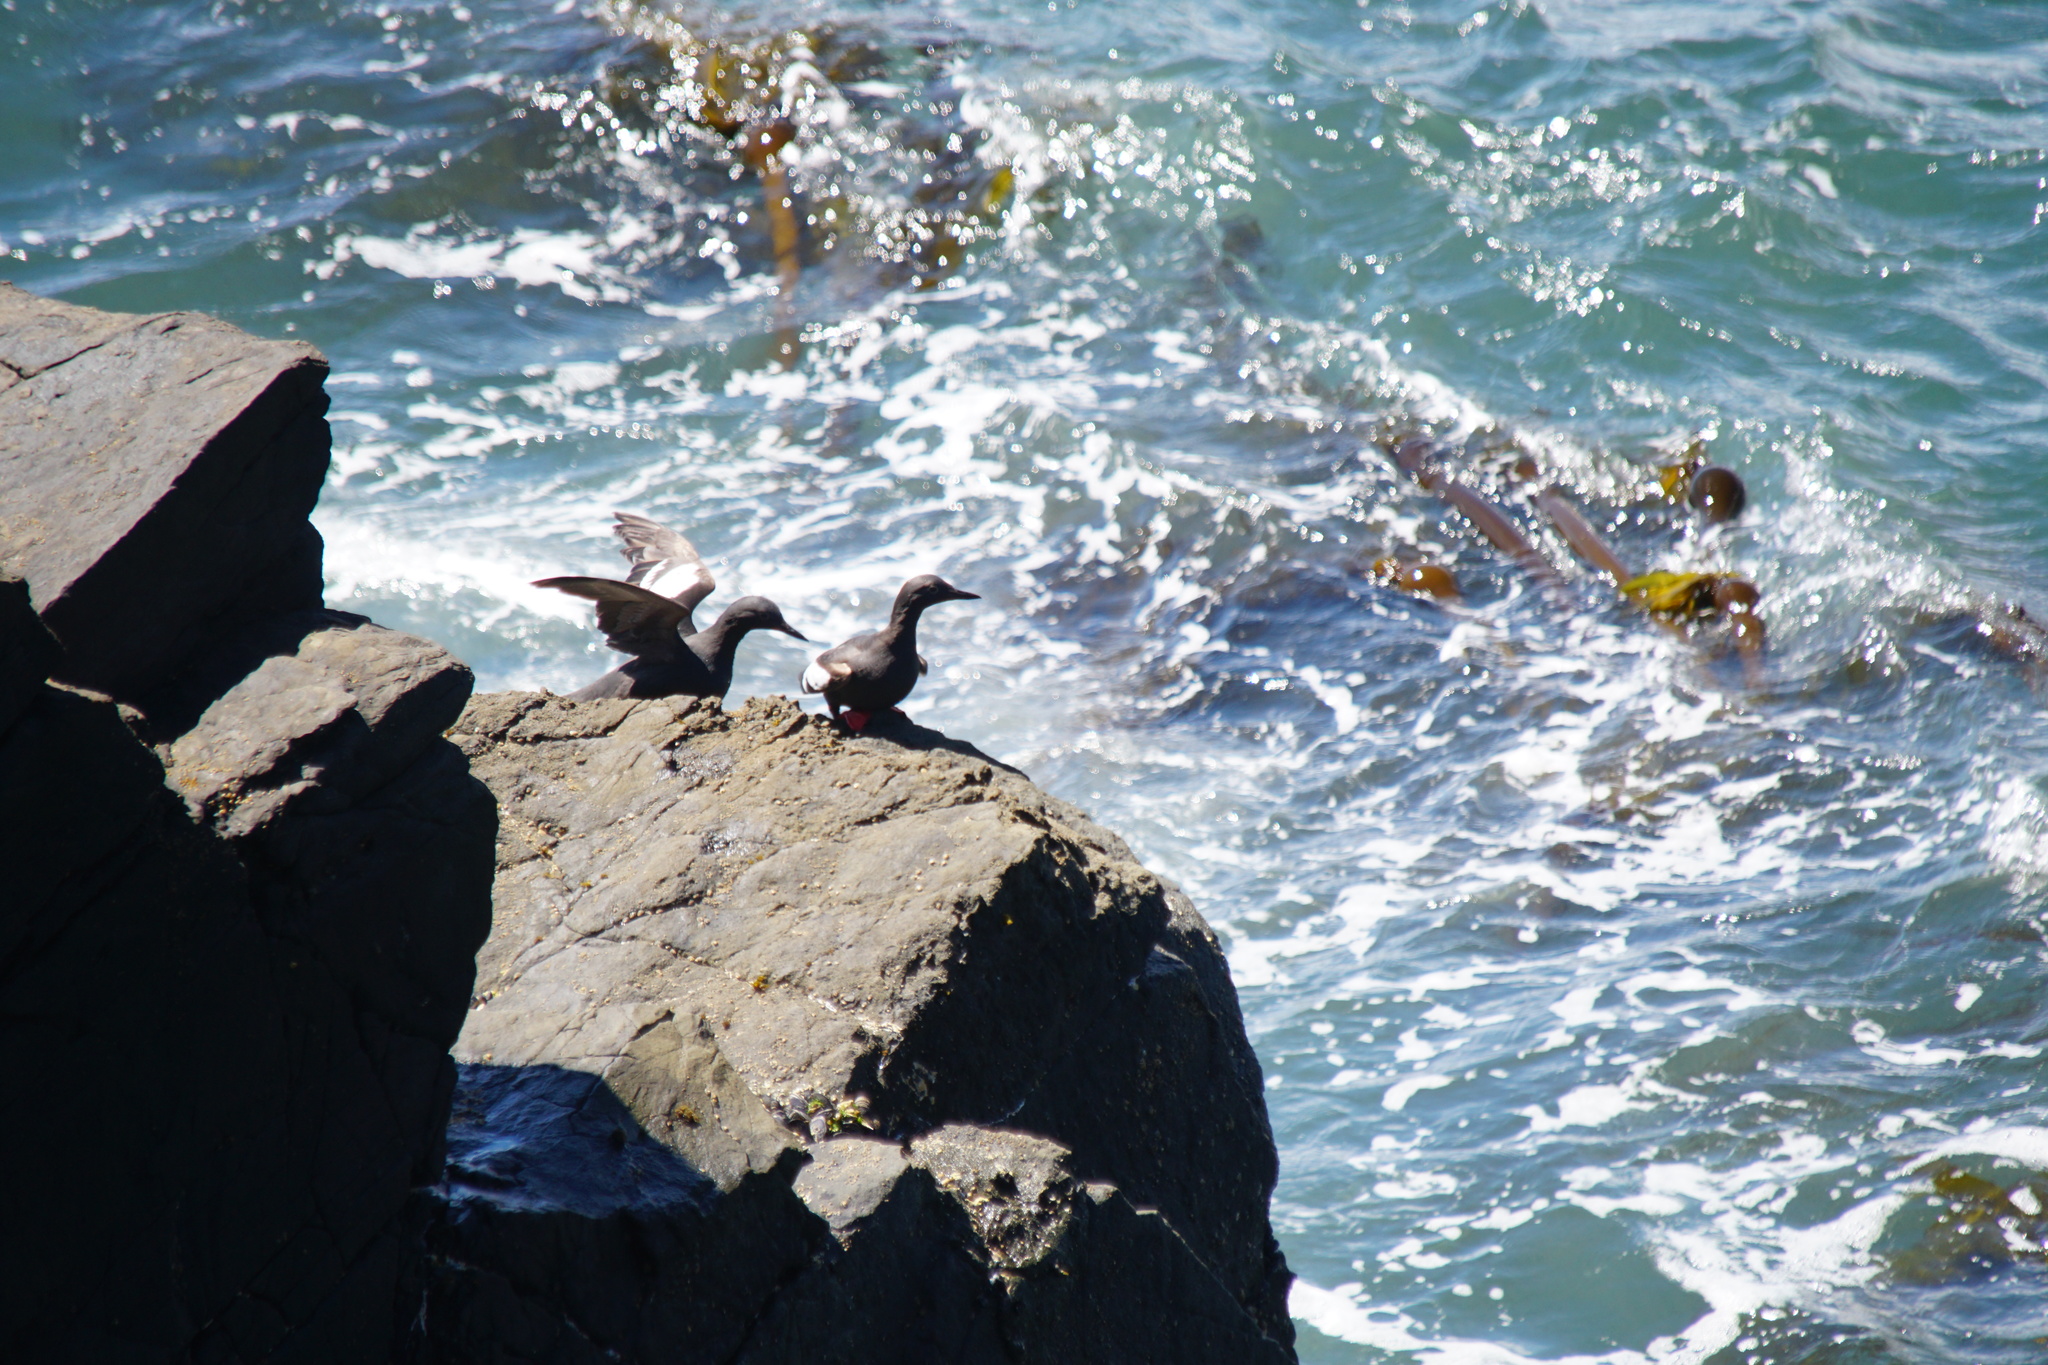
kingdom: Animalia
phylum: Chordata
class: Aves
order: Charadriiformes
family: Alcidae
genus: Cepphus
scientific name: Cepphus columba
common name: Pigeon guillemot
